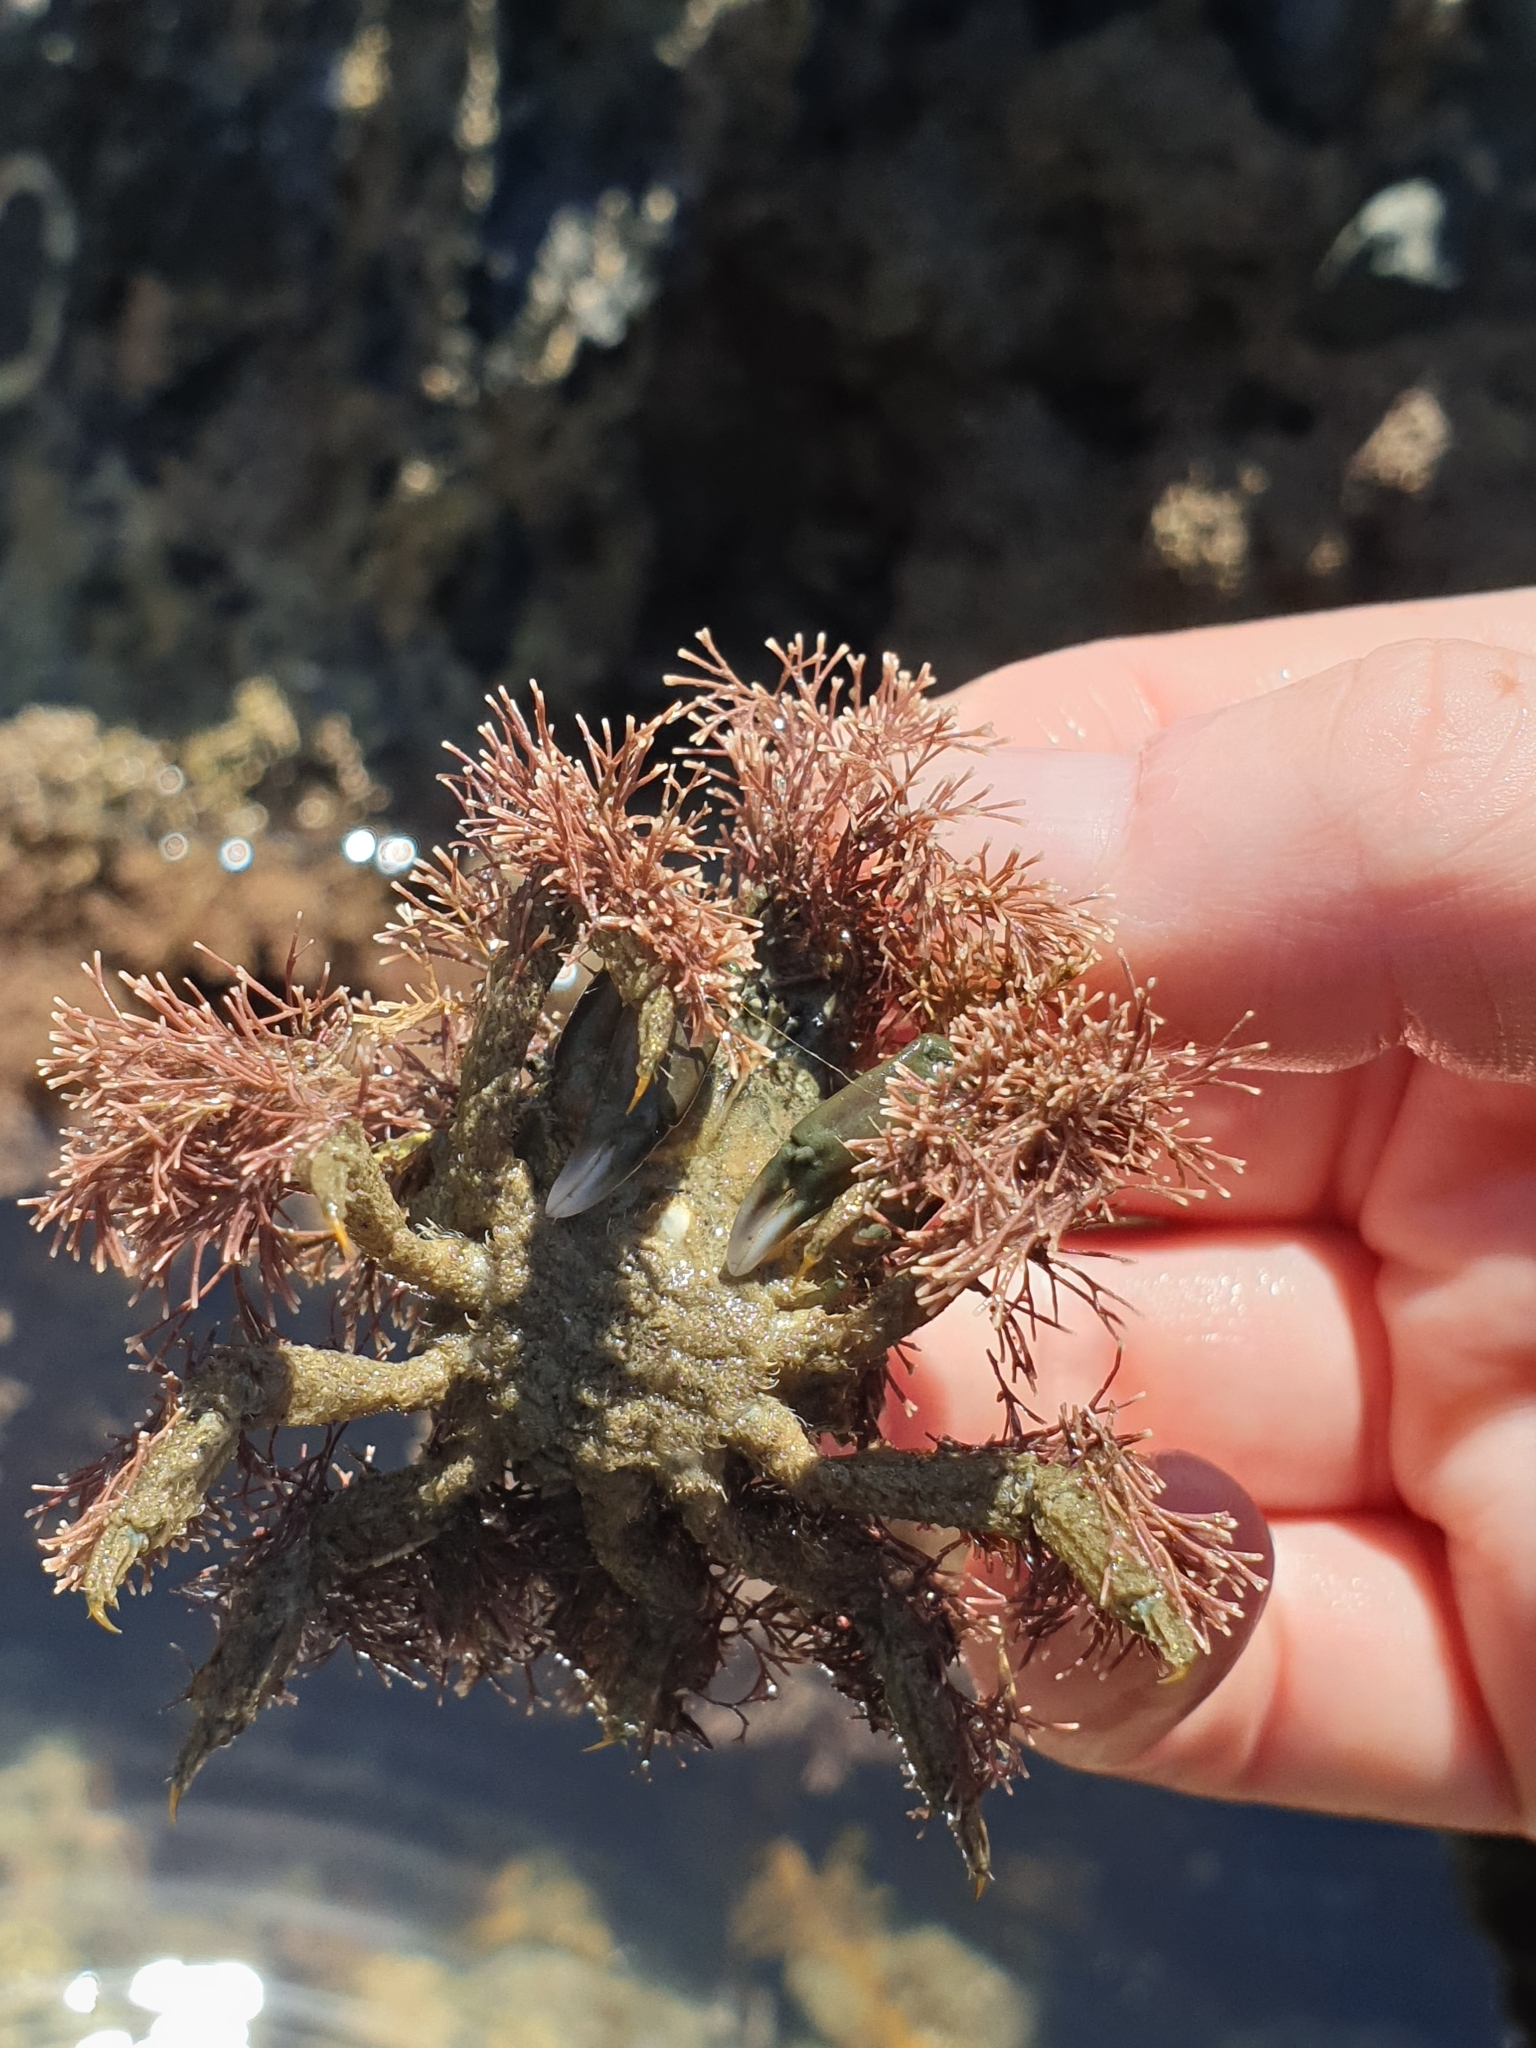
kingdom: Animalia
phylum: Arthropoda
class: Malacostraca
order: Decapoda
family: Majidae
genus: Notomithrax
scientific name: Notomithrax ursus
